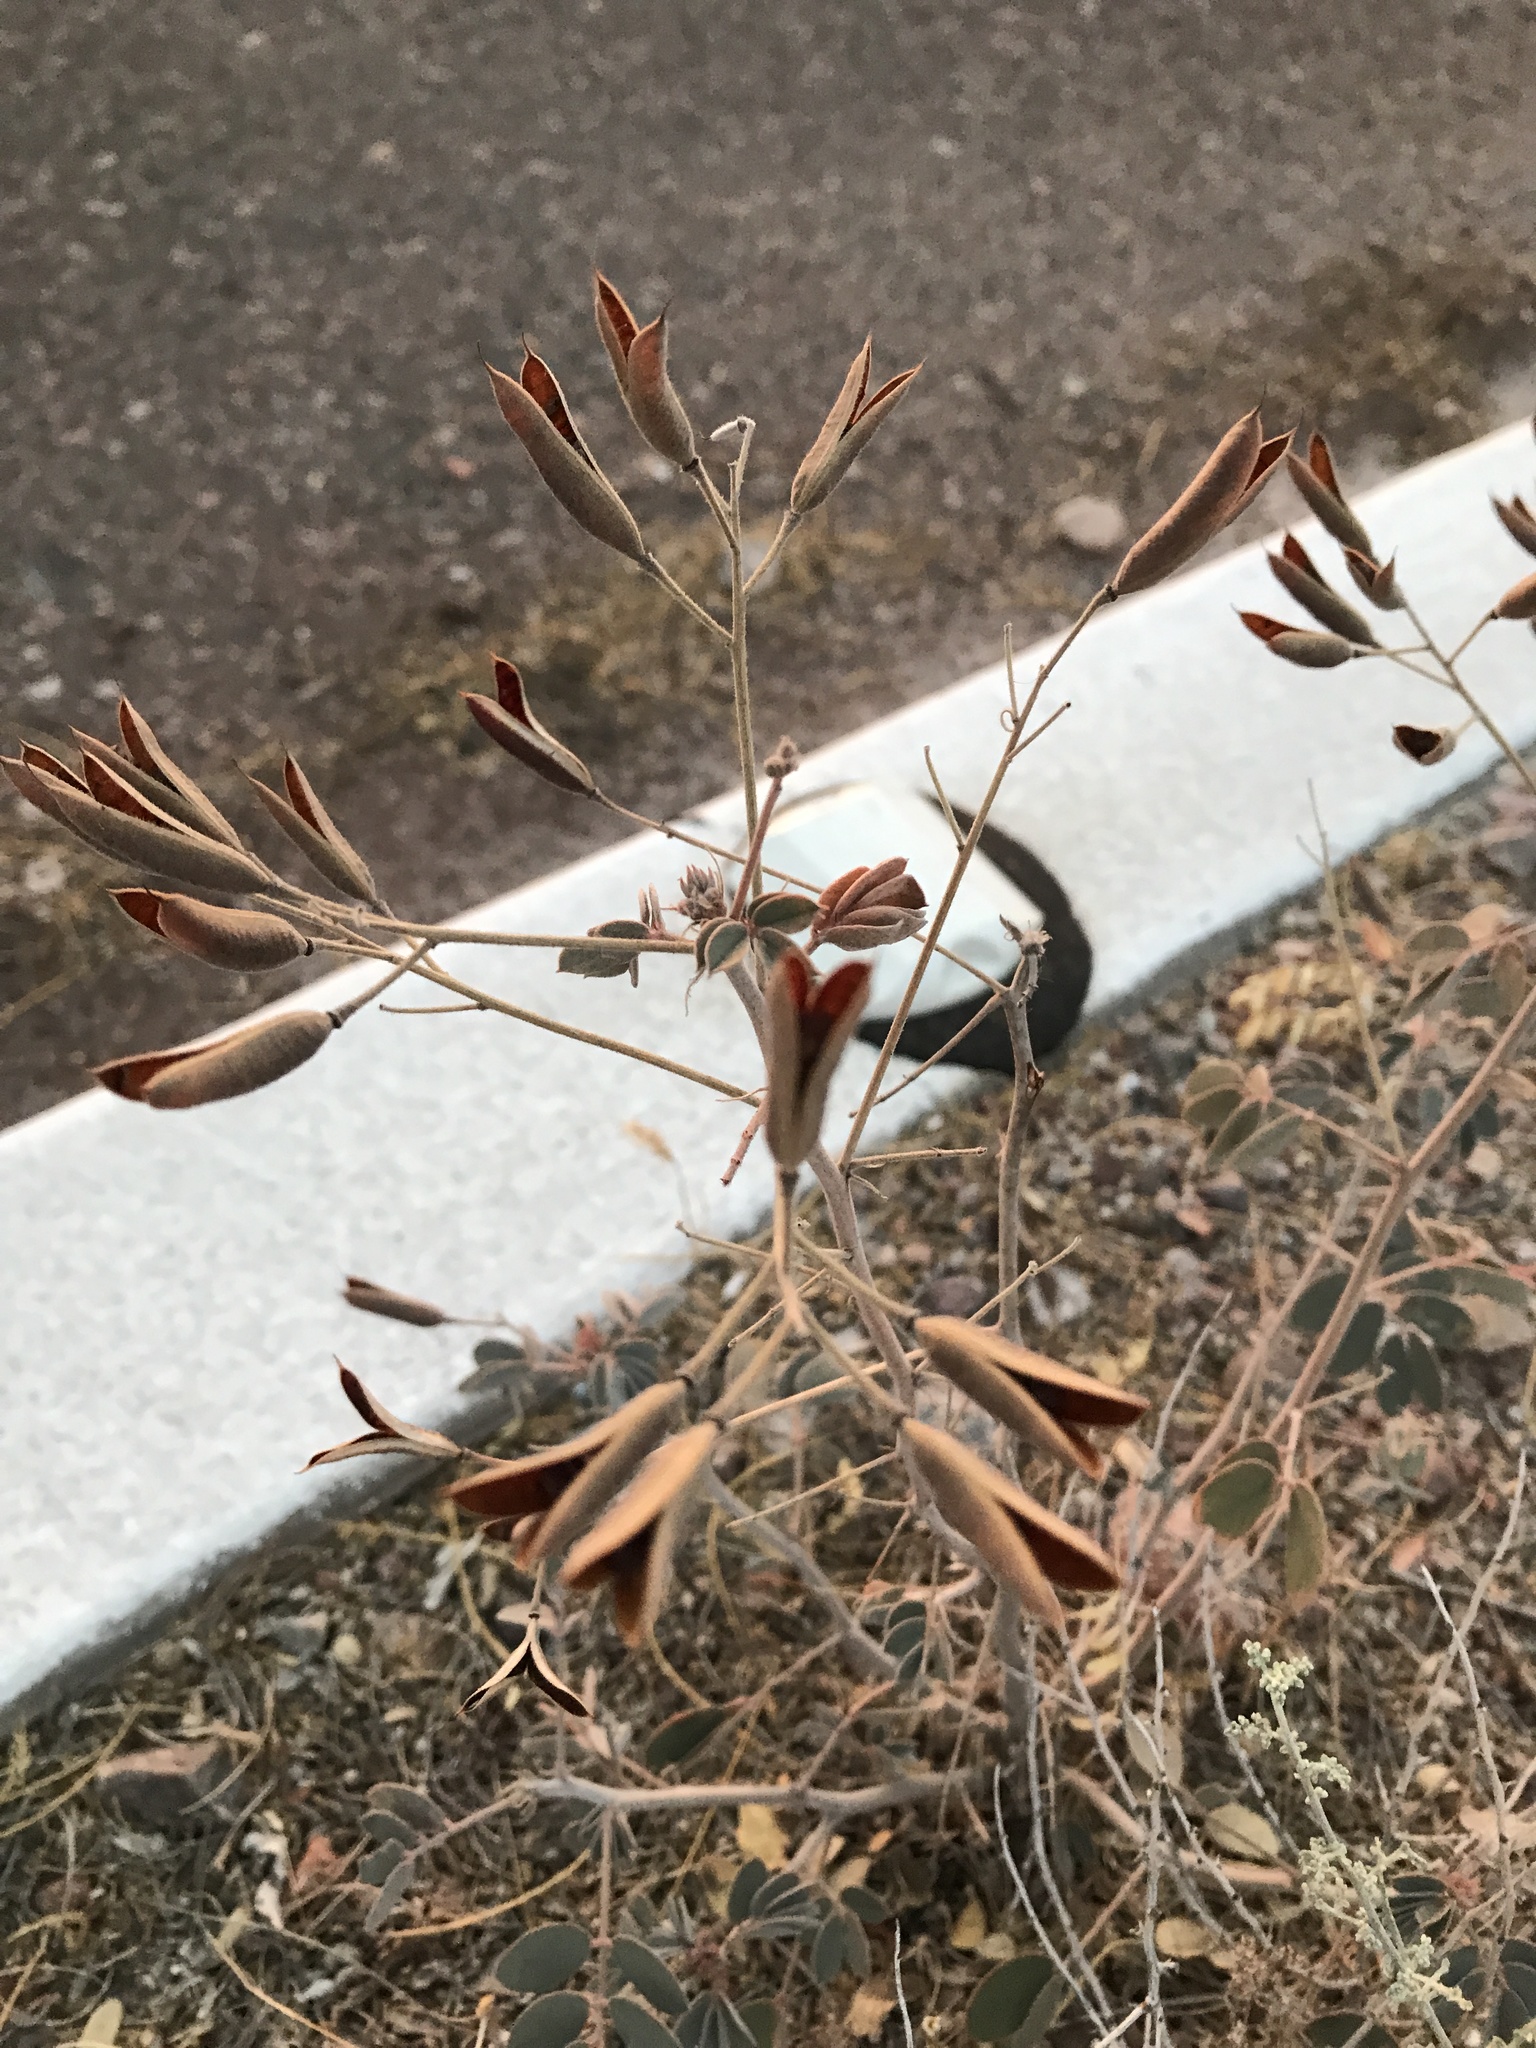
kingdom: Plantae
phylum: Tracheophyta
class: Magnoliopsida
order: Fabales
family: Fabaceae
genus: Senna
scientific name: Senna covesii
